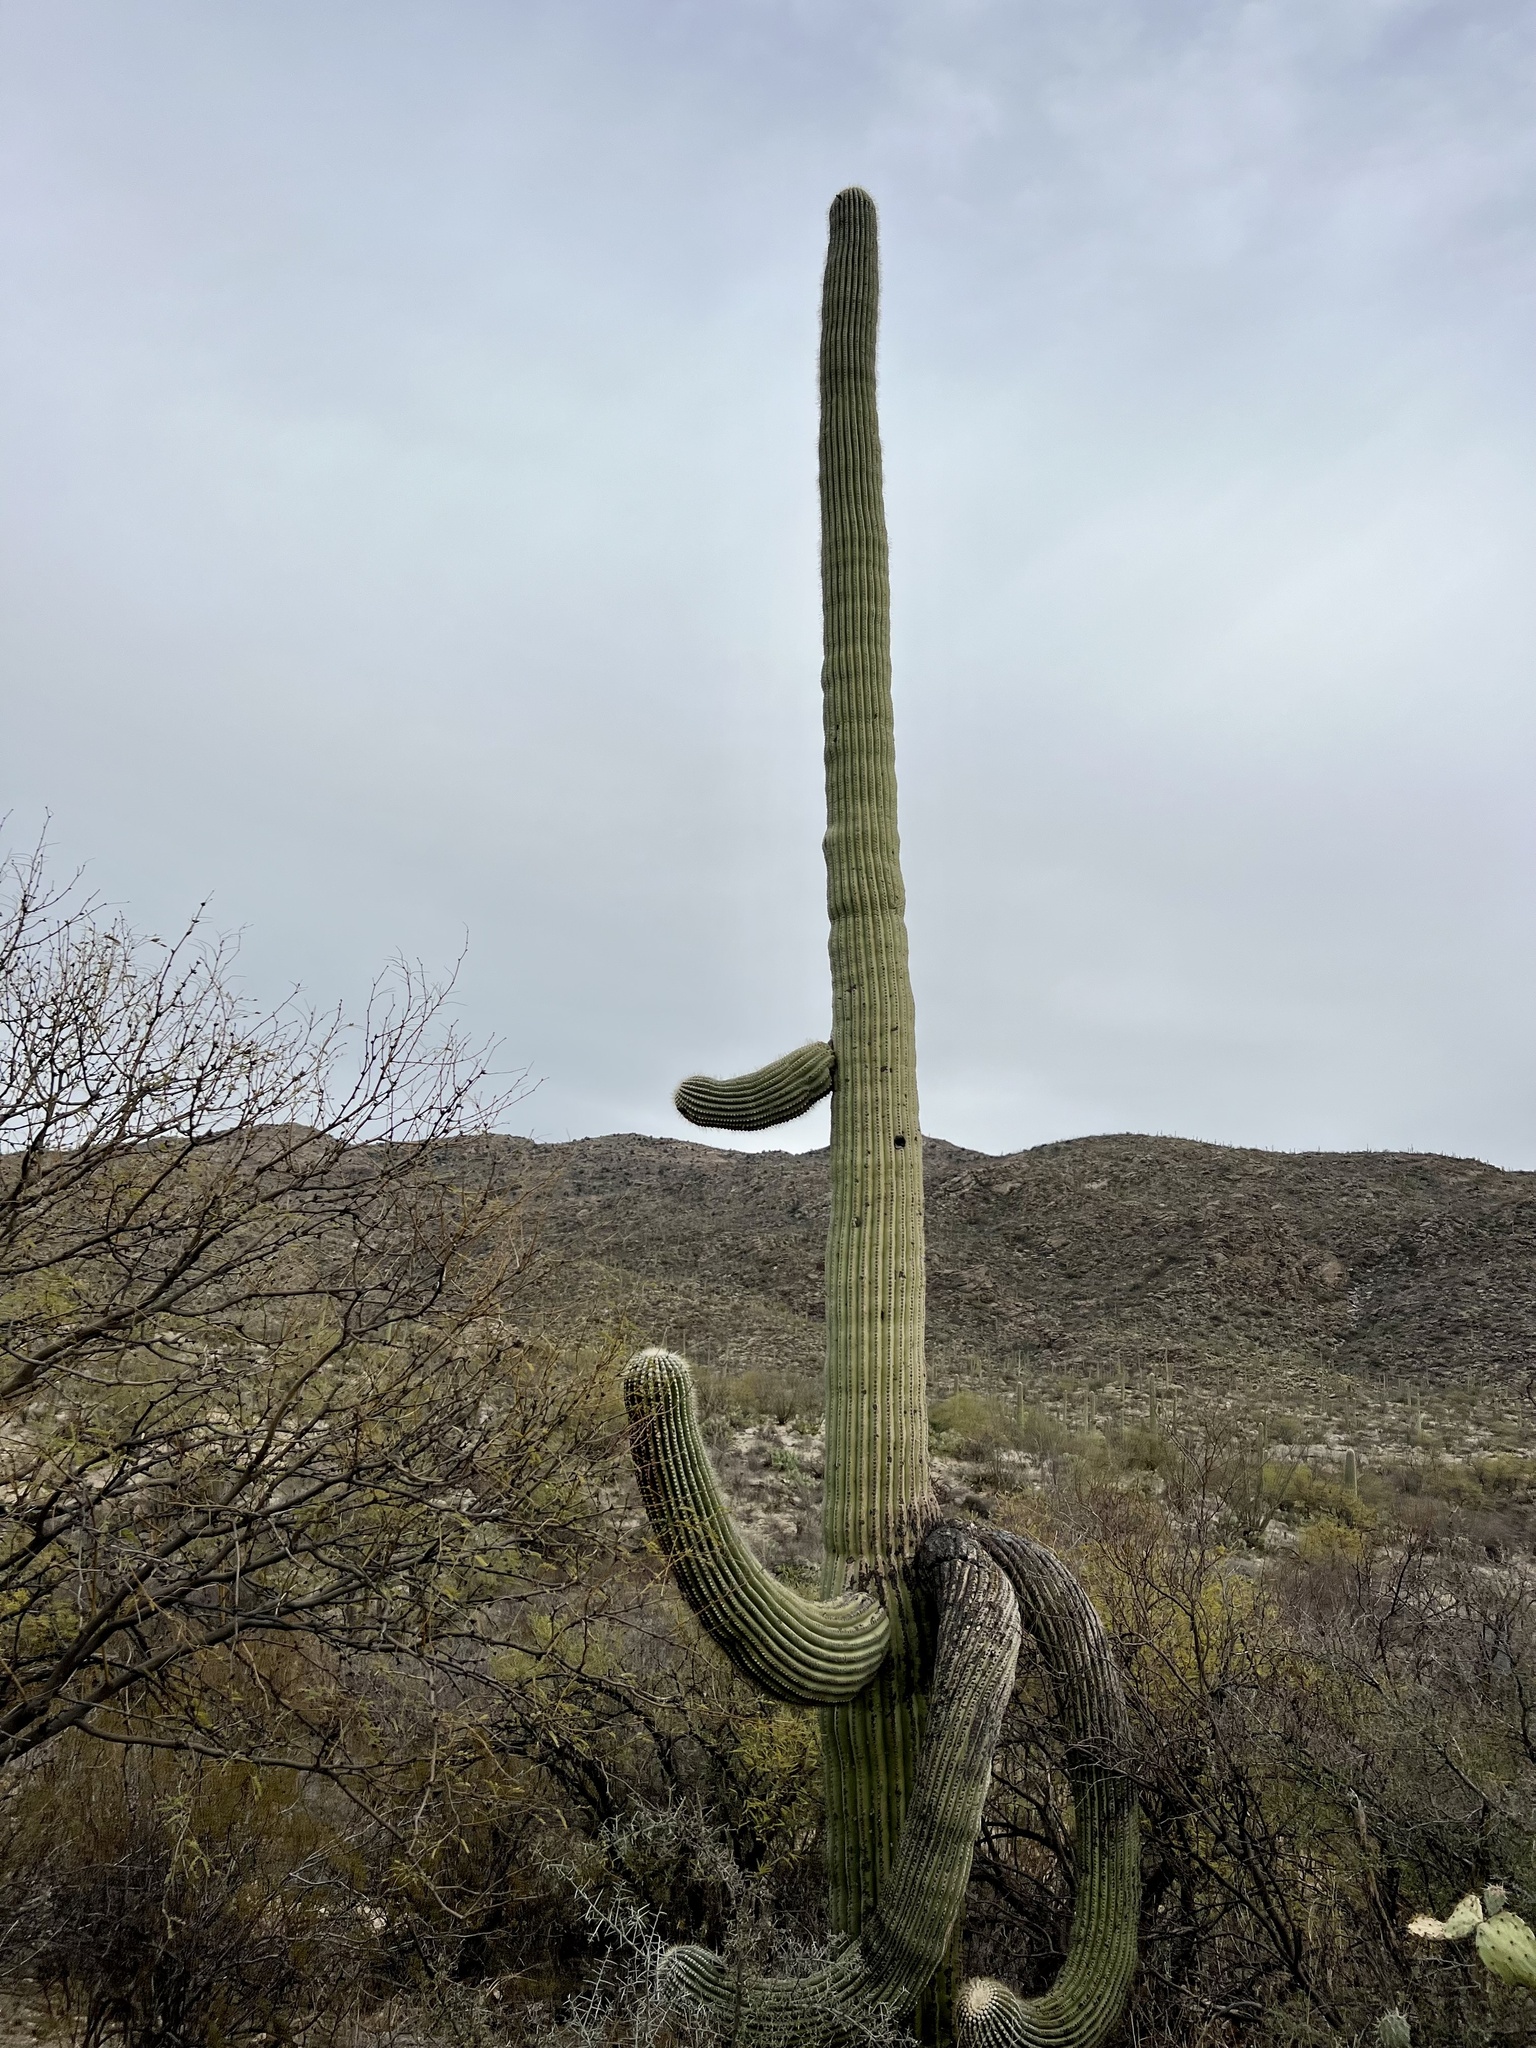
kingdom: Plantae
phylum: Tracheophyta
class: Magnoliopsida
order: Caryophyllales
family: Cactaceae
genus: Carnegiea
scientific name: Carnegiea gigantea
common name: Saguaro
